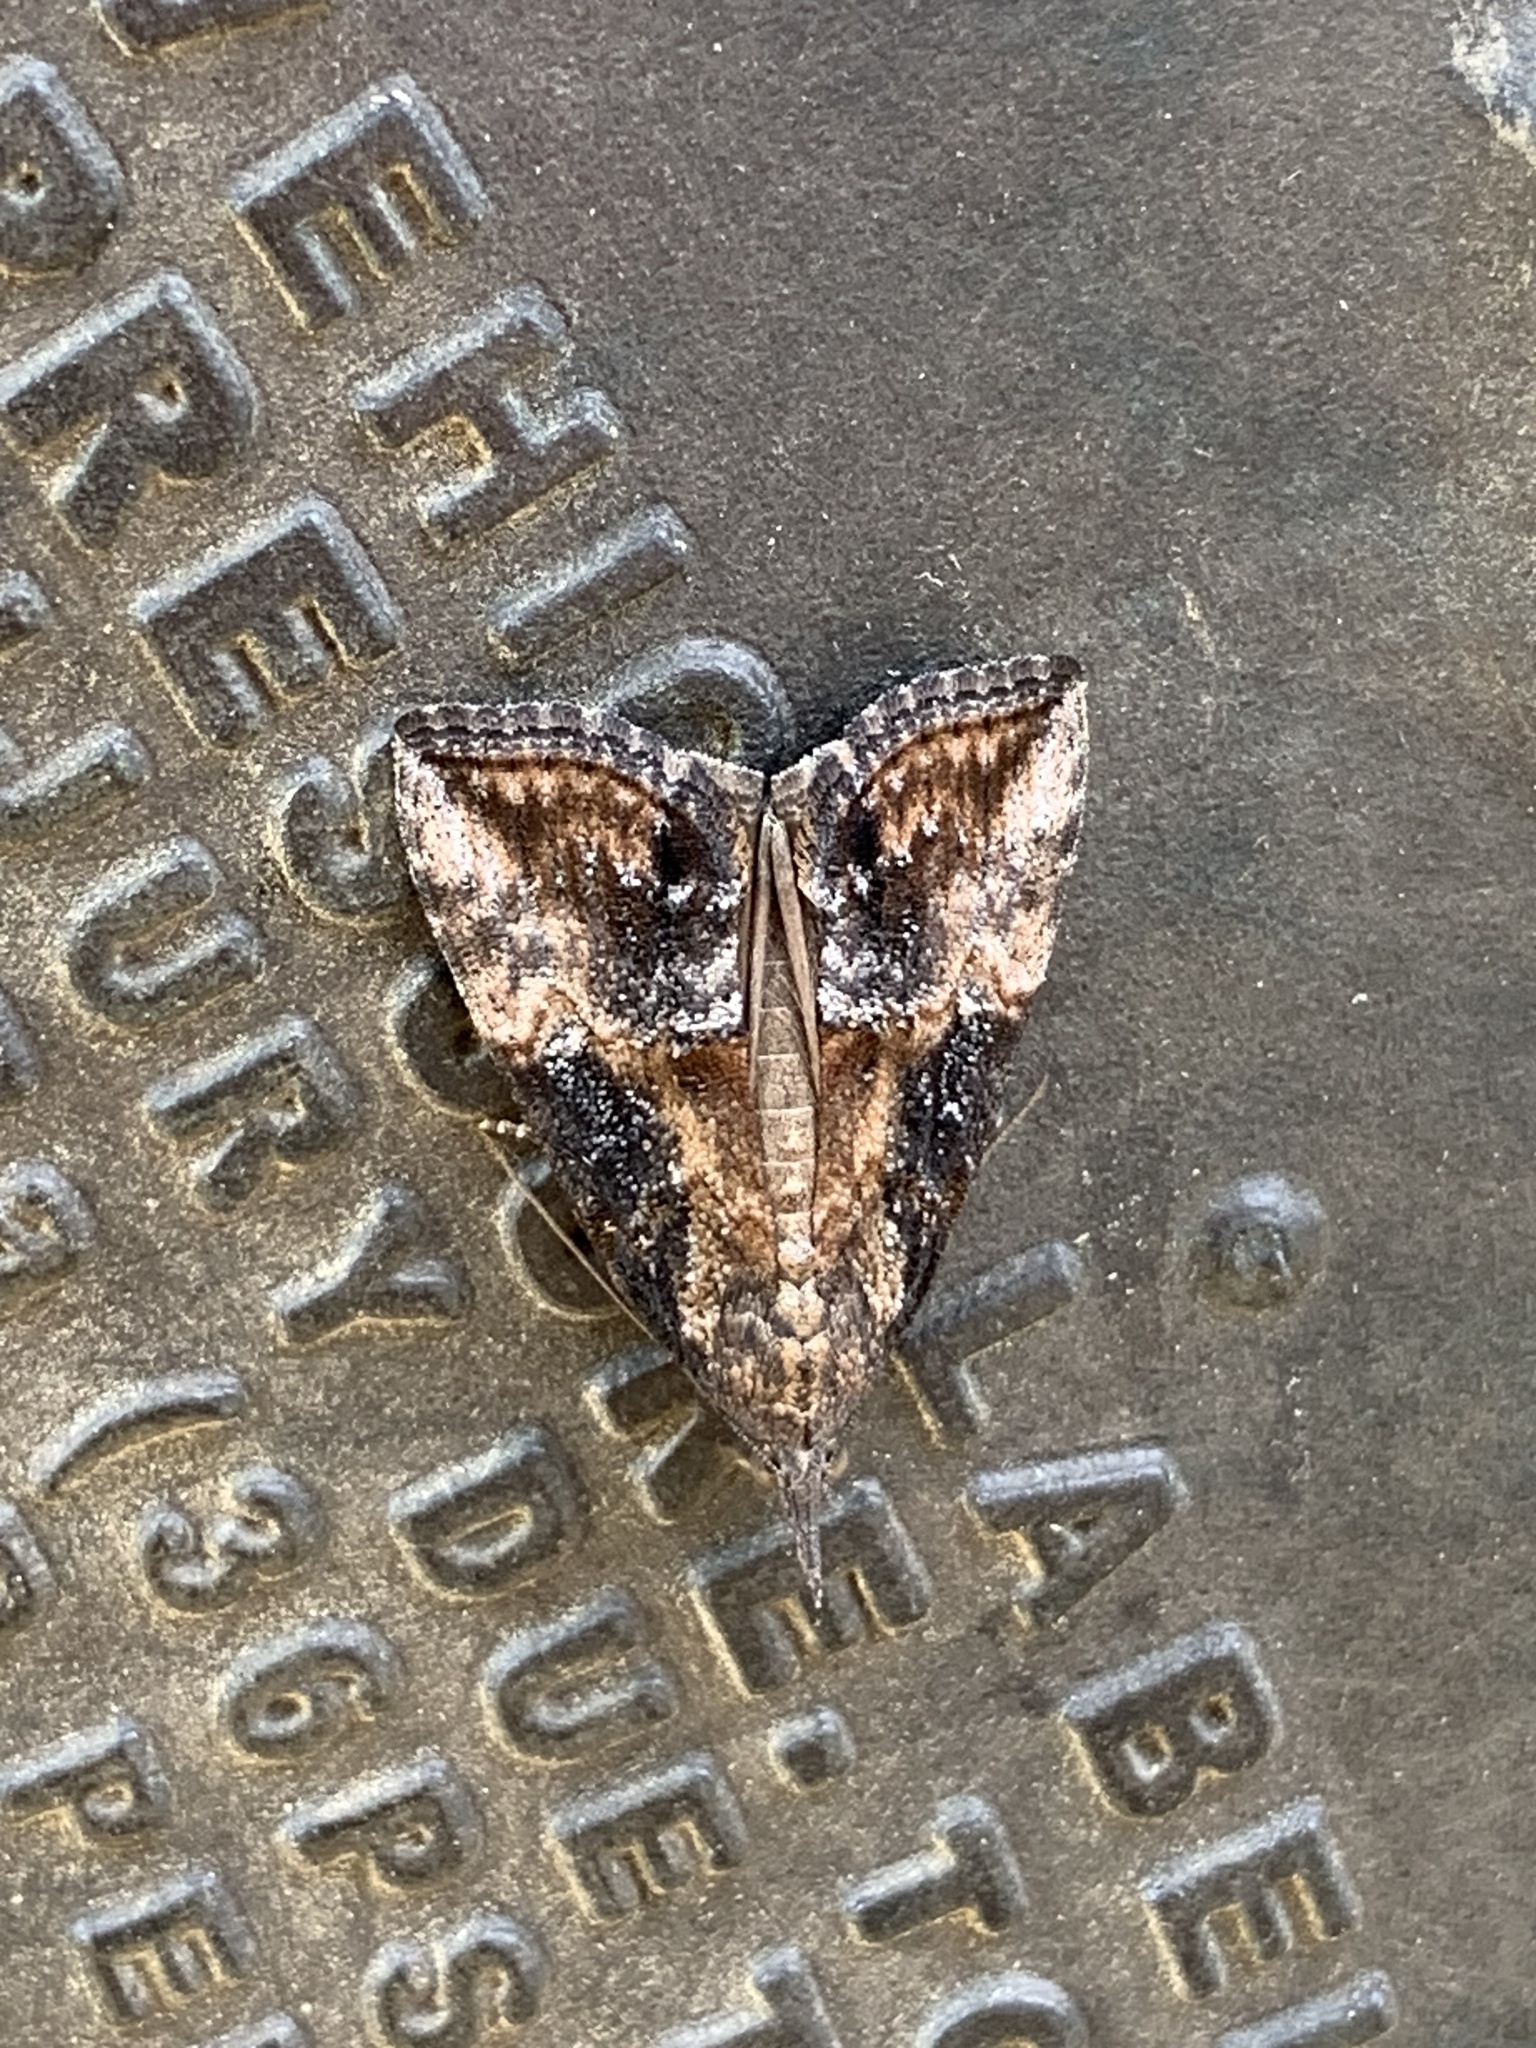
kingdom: Animalia
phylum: Arthropoda
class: Insecta
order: Lepidoptera
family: Erebidae
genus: Hypena
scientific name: Hypena scabra
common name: Green cloverworm
